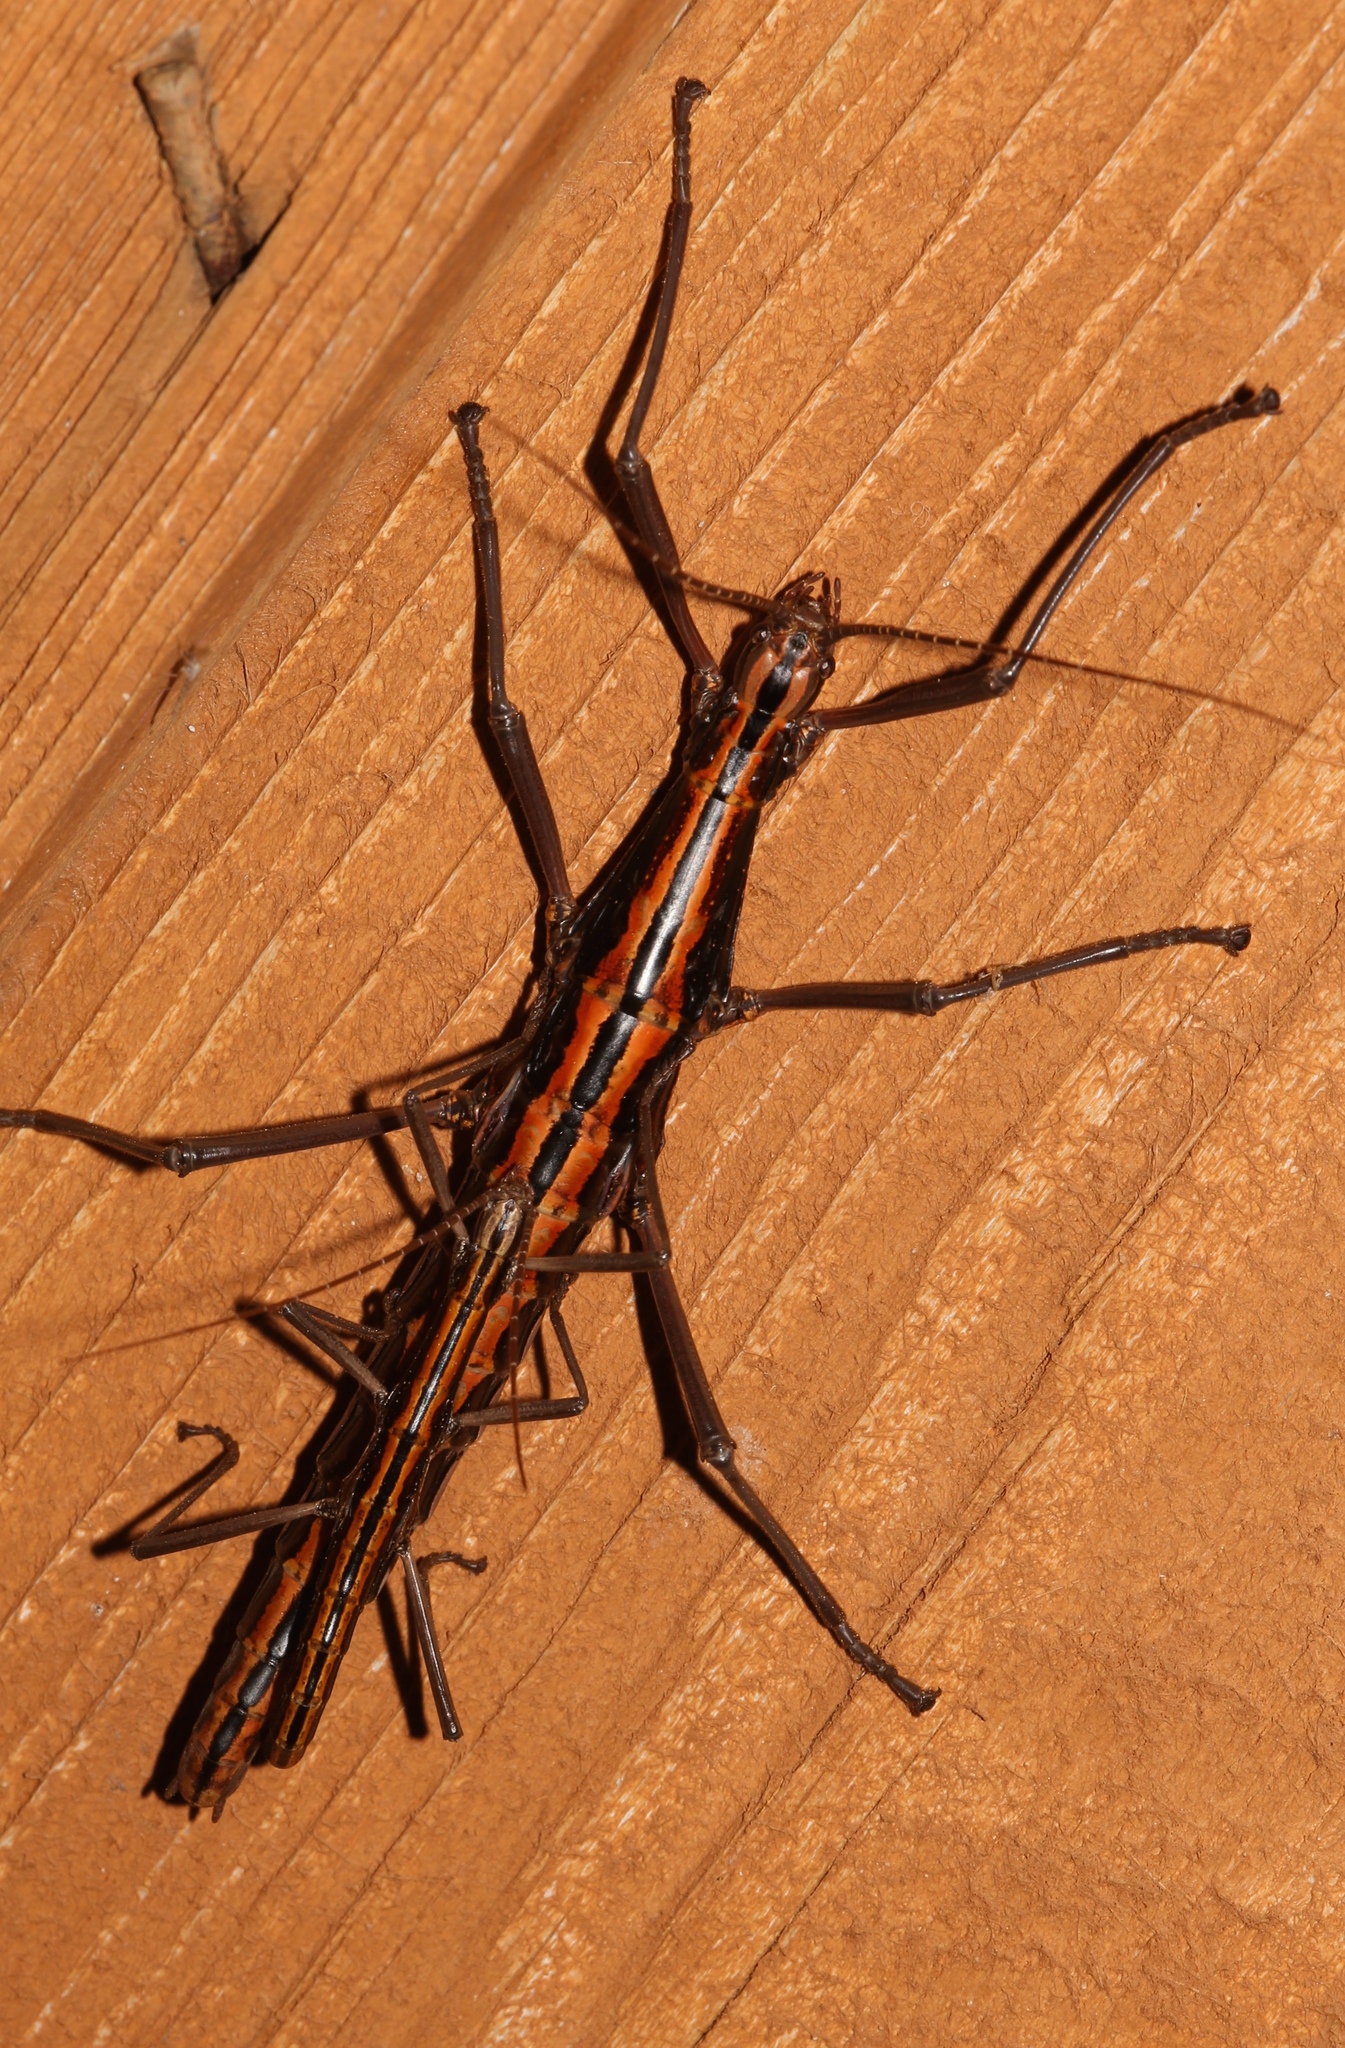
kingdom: Animalia
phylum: Arthropoda
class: Insecta
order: Phasmida
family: Pseudophasmatidae
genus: Anisomorpha
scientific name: Anisomorpha buprestoides
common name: Florida stick insect
